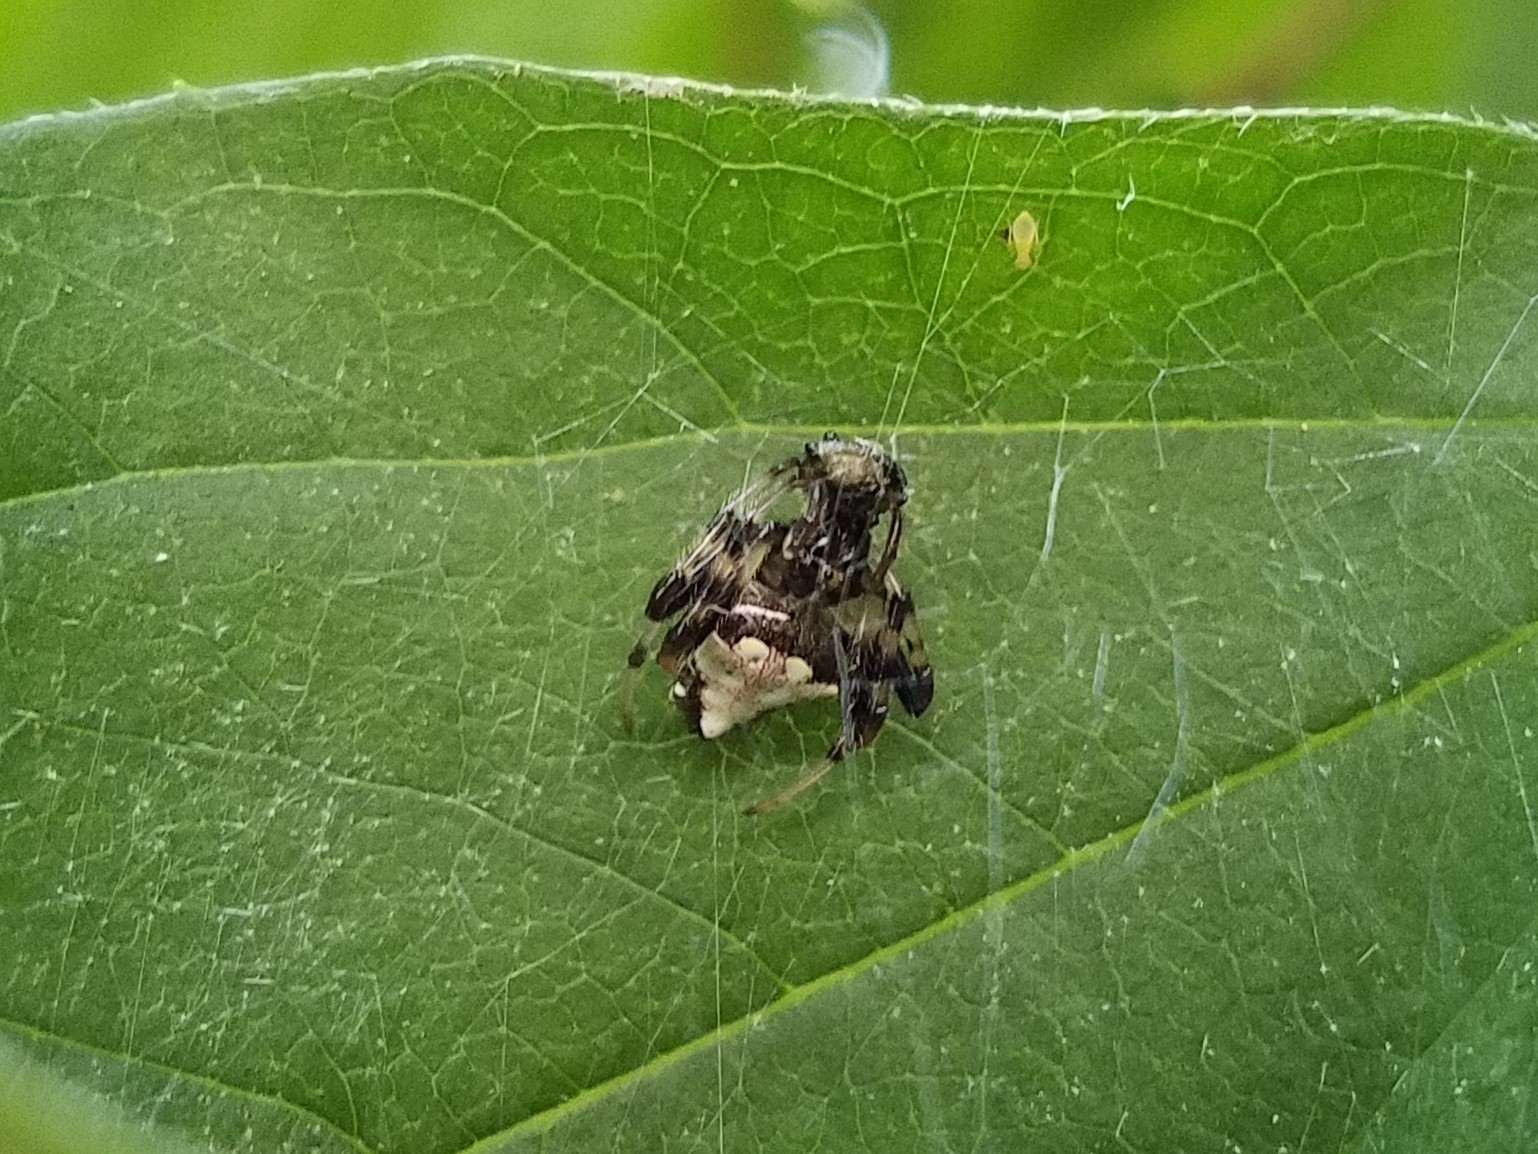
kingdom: Animalia
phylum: Arthropoda
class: Arachnida
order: Araneae
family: Araneidae
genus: Verrucosa
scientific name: Verrucosa arenata
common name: Orb weavers
